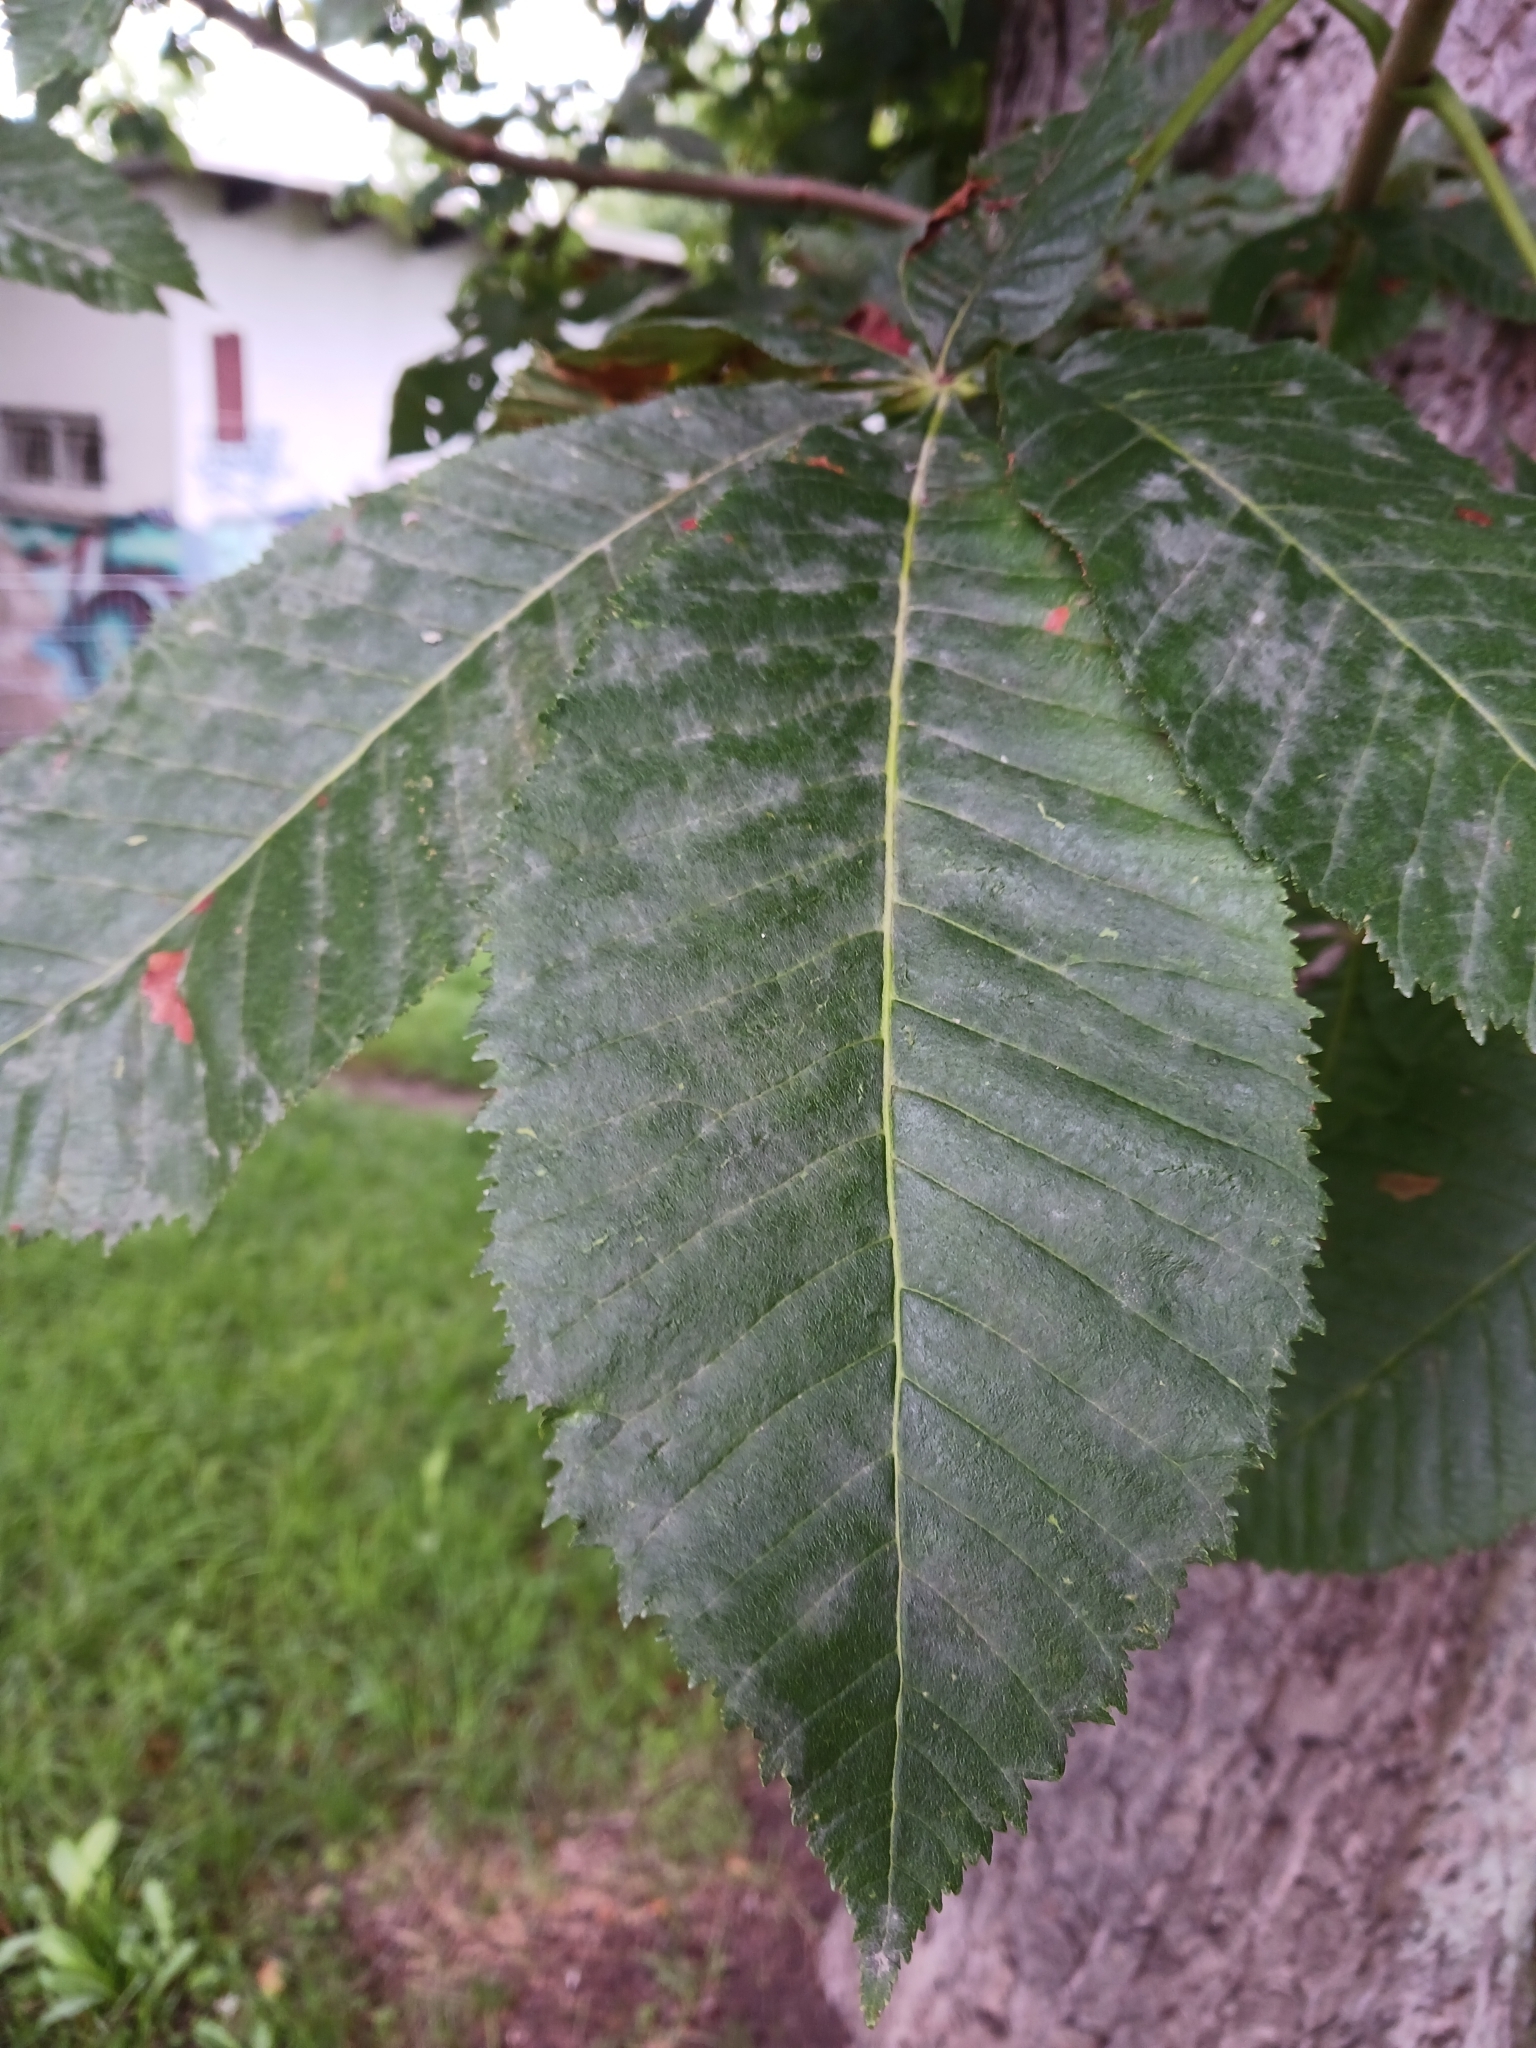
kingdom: Fungi
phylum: Ascomycota
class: Leotiomycetes
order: Helotiales
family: Erysiphaceae
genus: Erysiphe
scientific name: Erysiphe flexuosa
